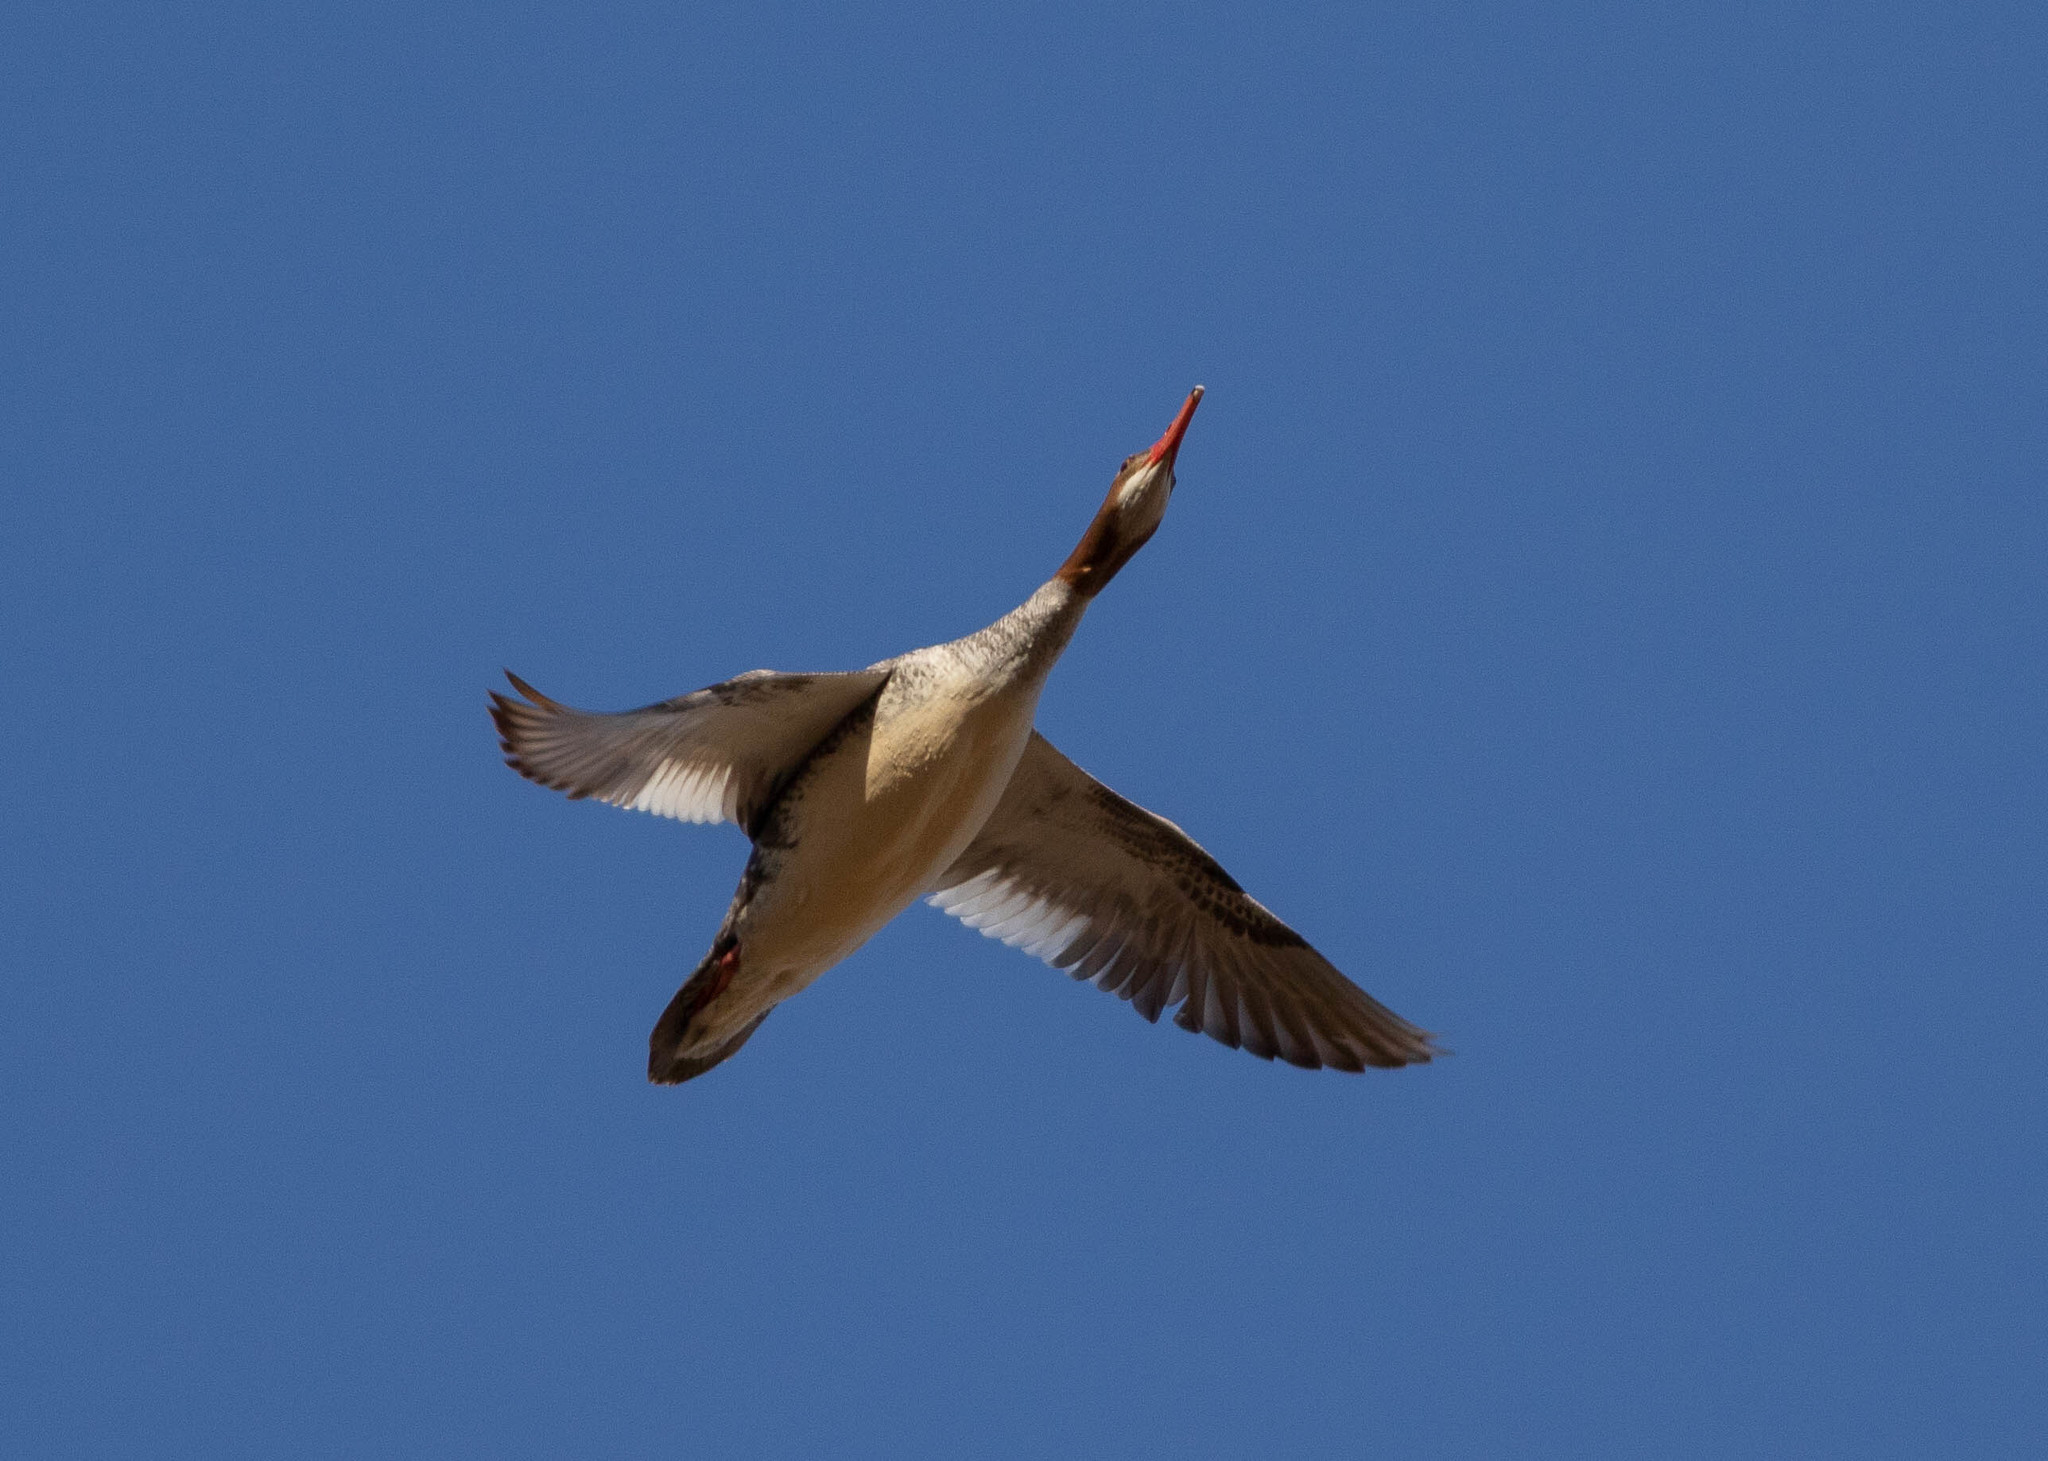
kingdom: Animalia
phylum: Chordata
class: Aves
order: Anseriformes
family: Anatidae
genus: Mergus
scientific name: Mergus merganser
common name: Common merganser
